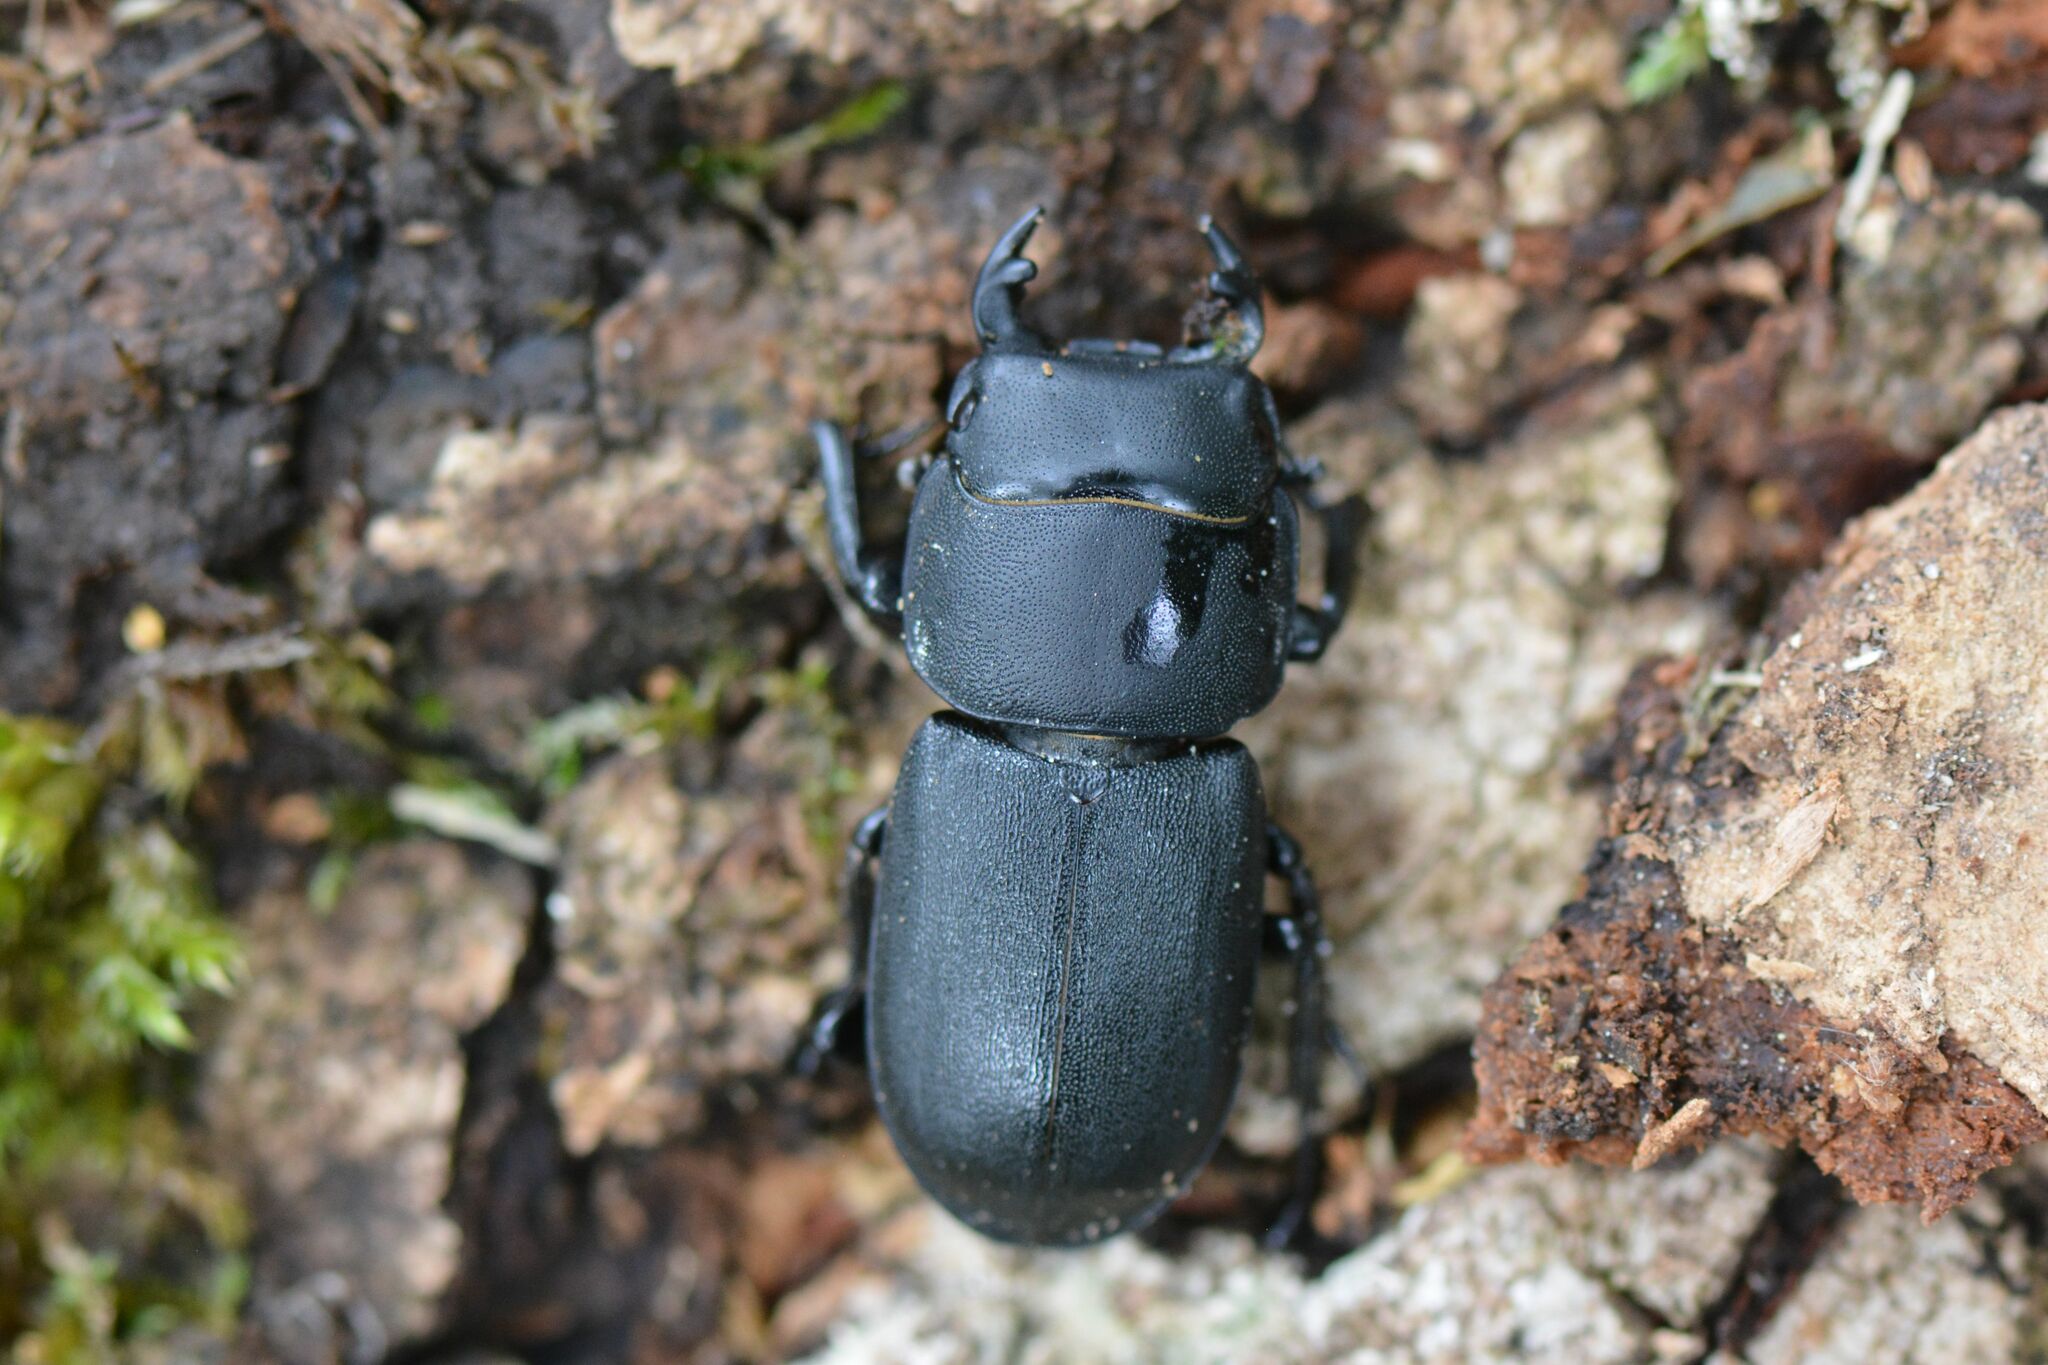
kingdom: Animalia
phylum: Arthropoda
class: Insecta
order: Coleoptera
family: Lucanidae
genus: Dorcus
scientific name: Dorcus parallelipipedus
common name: Lesser stag beetle
